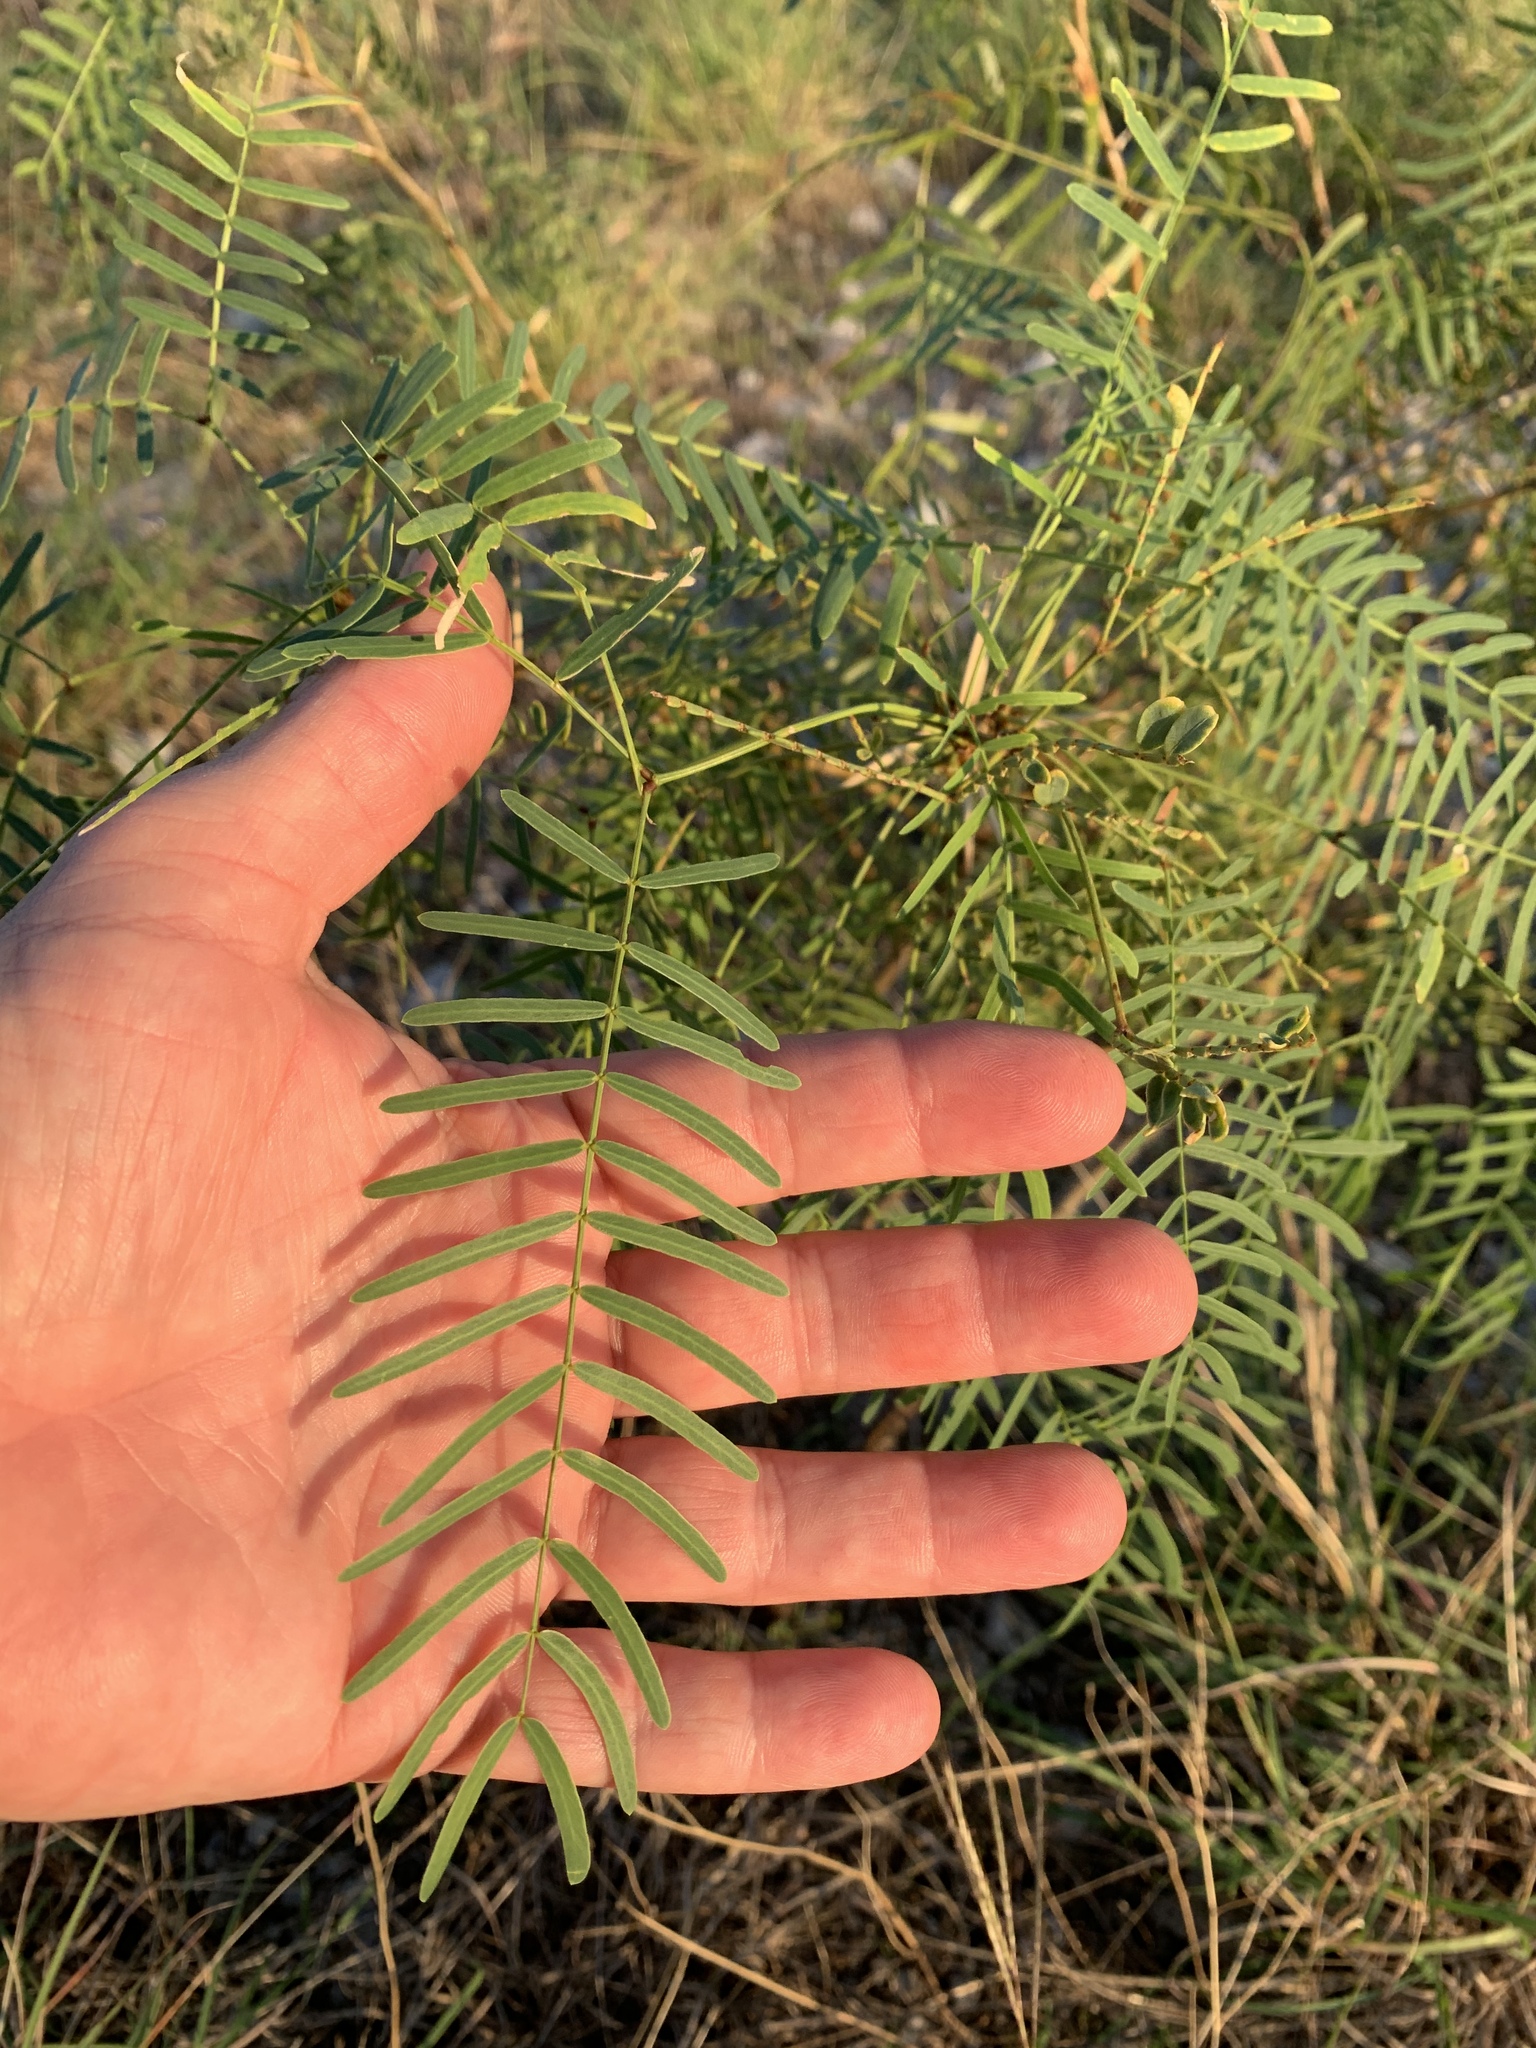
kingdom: Plantae
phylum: Tracheophyta
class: Magnoliopsida
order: Fabales
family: Fabaceae
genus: Prosopis
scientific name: Prosopis glandulosa
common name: Honey mesquite
